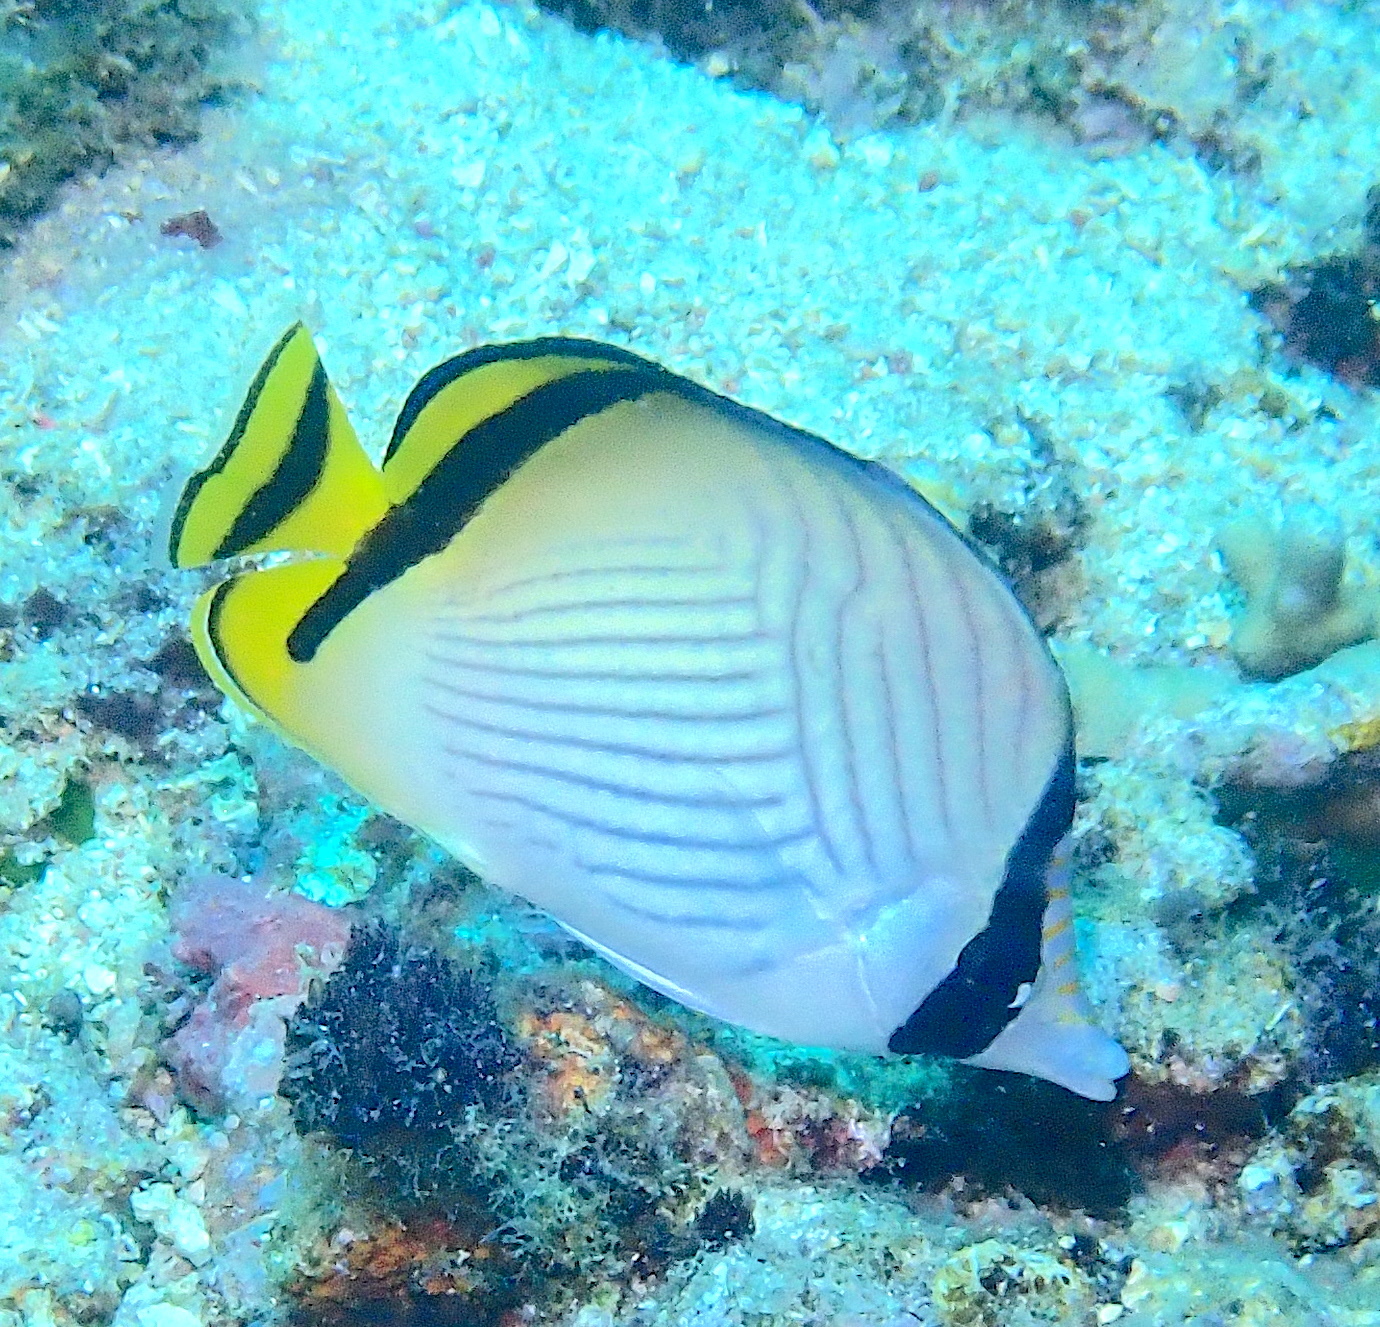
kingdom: Animalia
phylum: Chordata
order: Perciformes
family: Chaetodontidae
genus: Chaetodon
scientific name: Chaetodon vagabundus
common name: Vagabond butterflyfish
